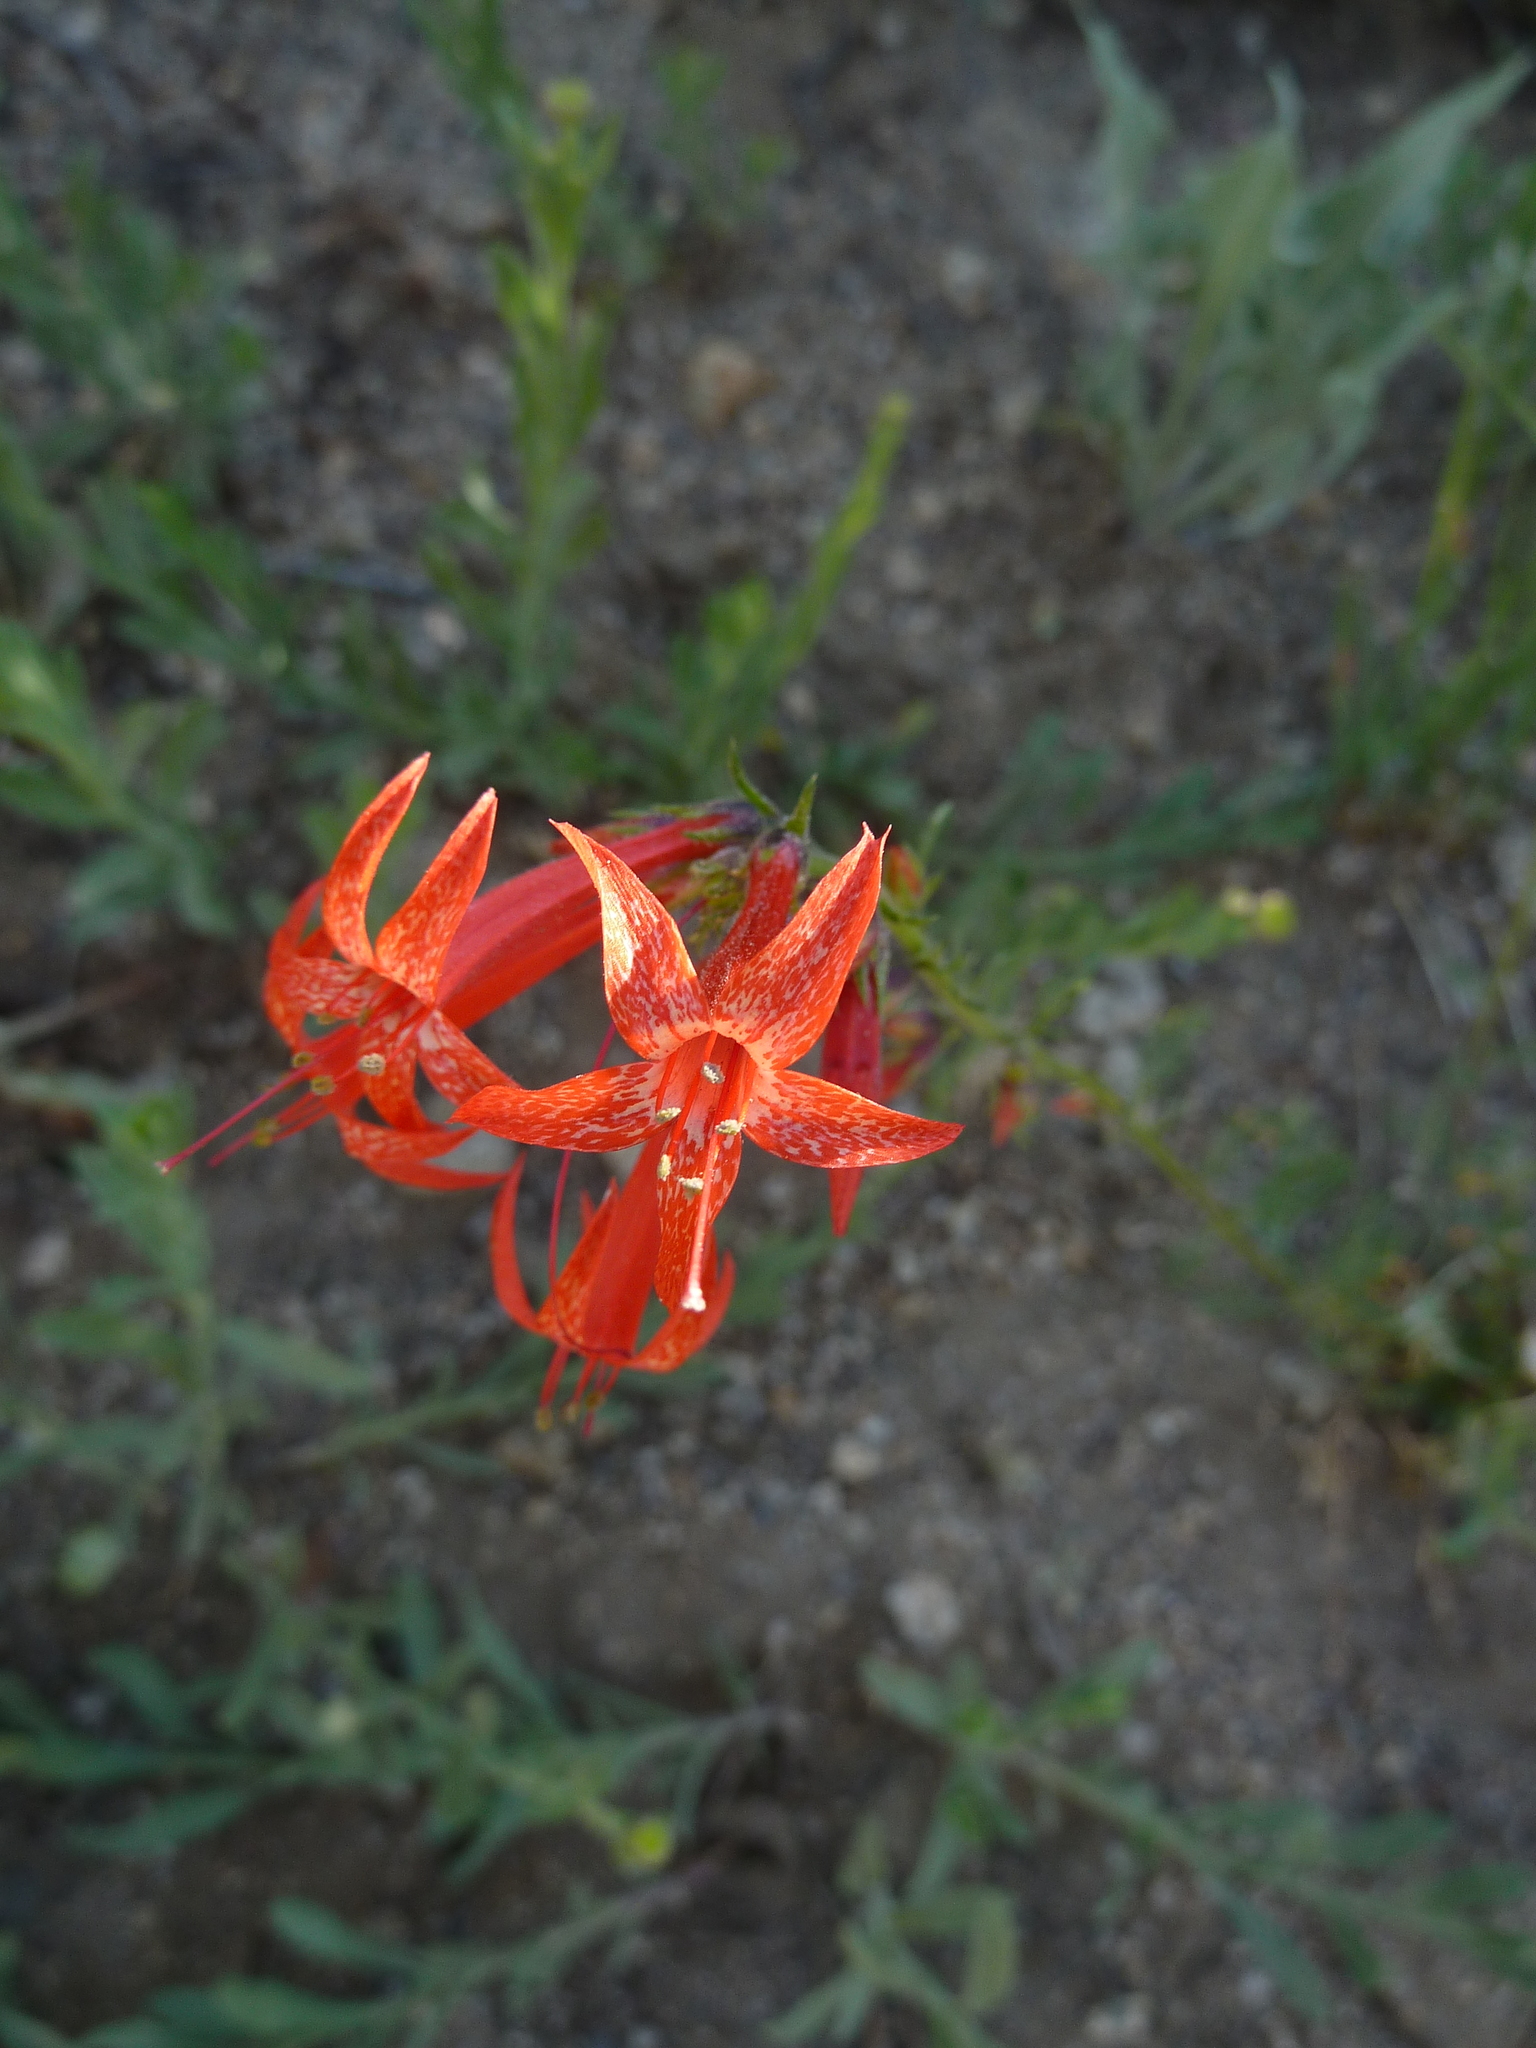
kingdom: Plantae
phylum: Tracheophyta
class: Magnoliopsida
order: Ericales
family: Polemoniaceae
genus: Ipomopsis
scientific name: Ipomopsis aggregata
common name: Scarlet gilia
